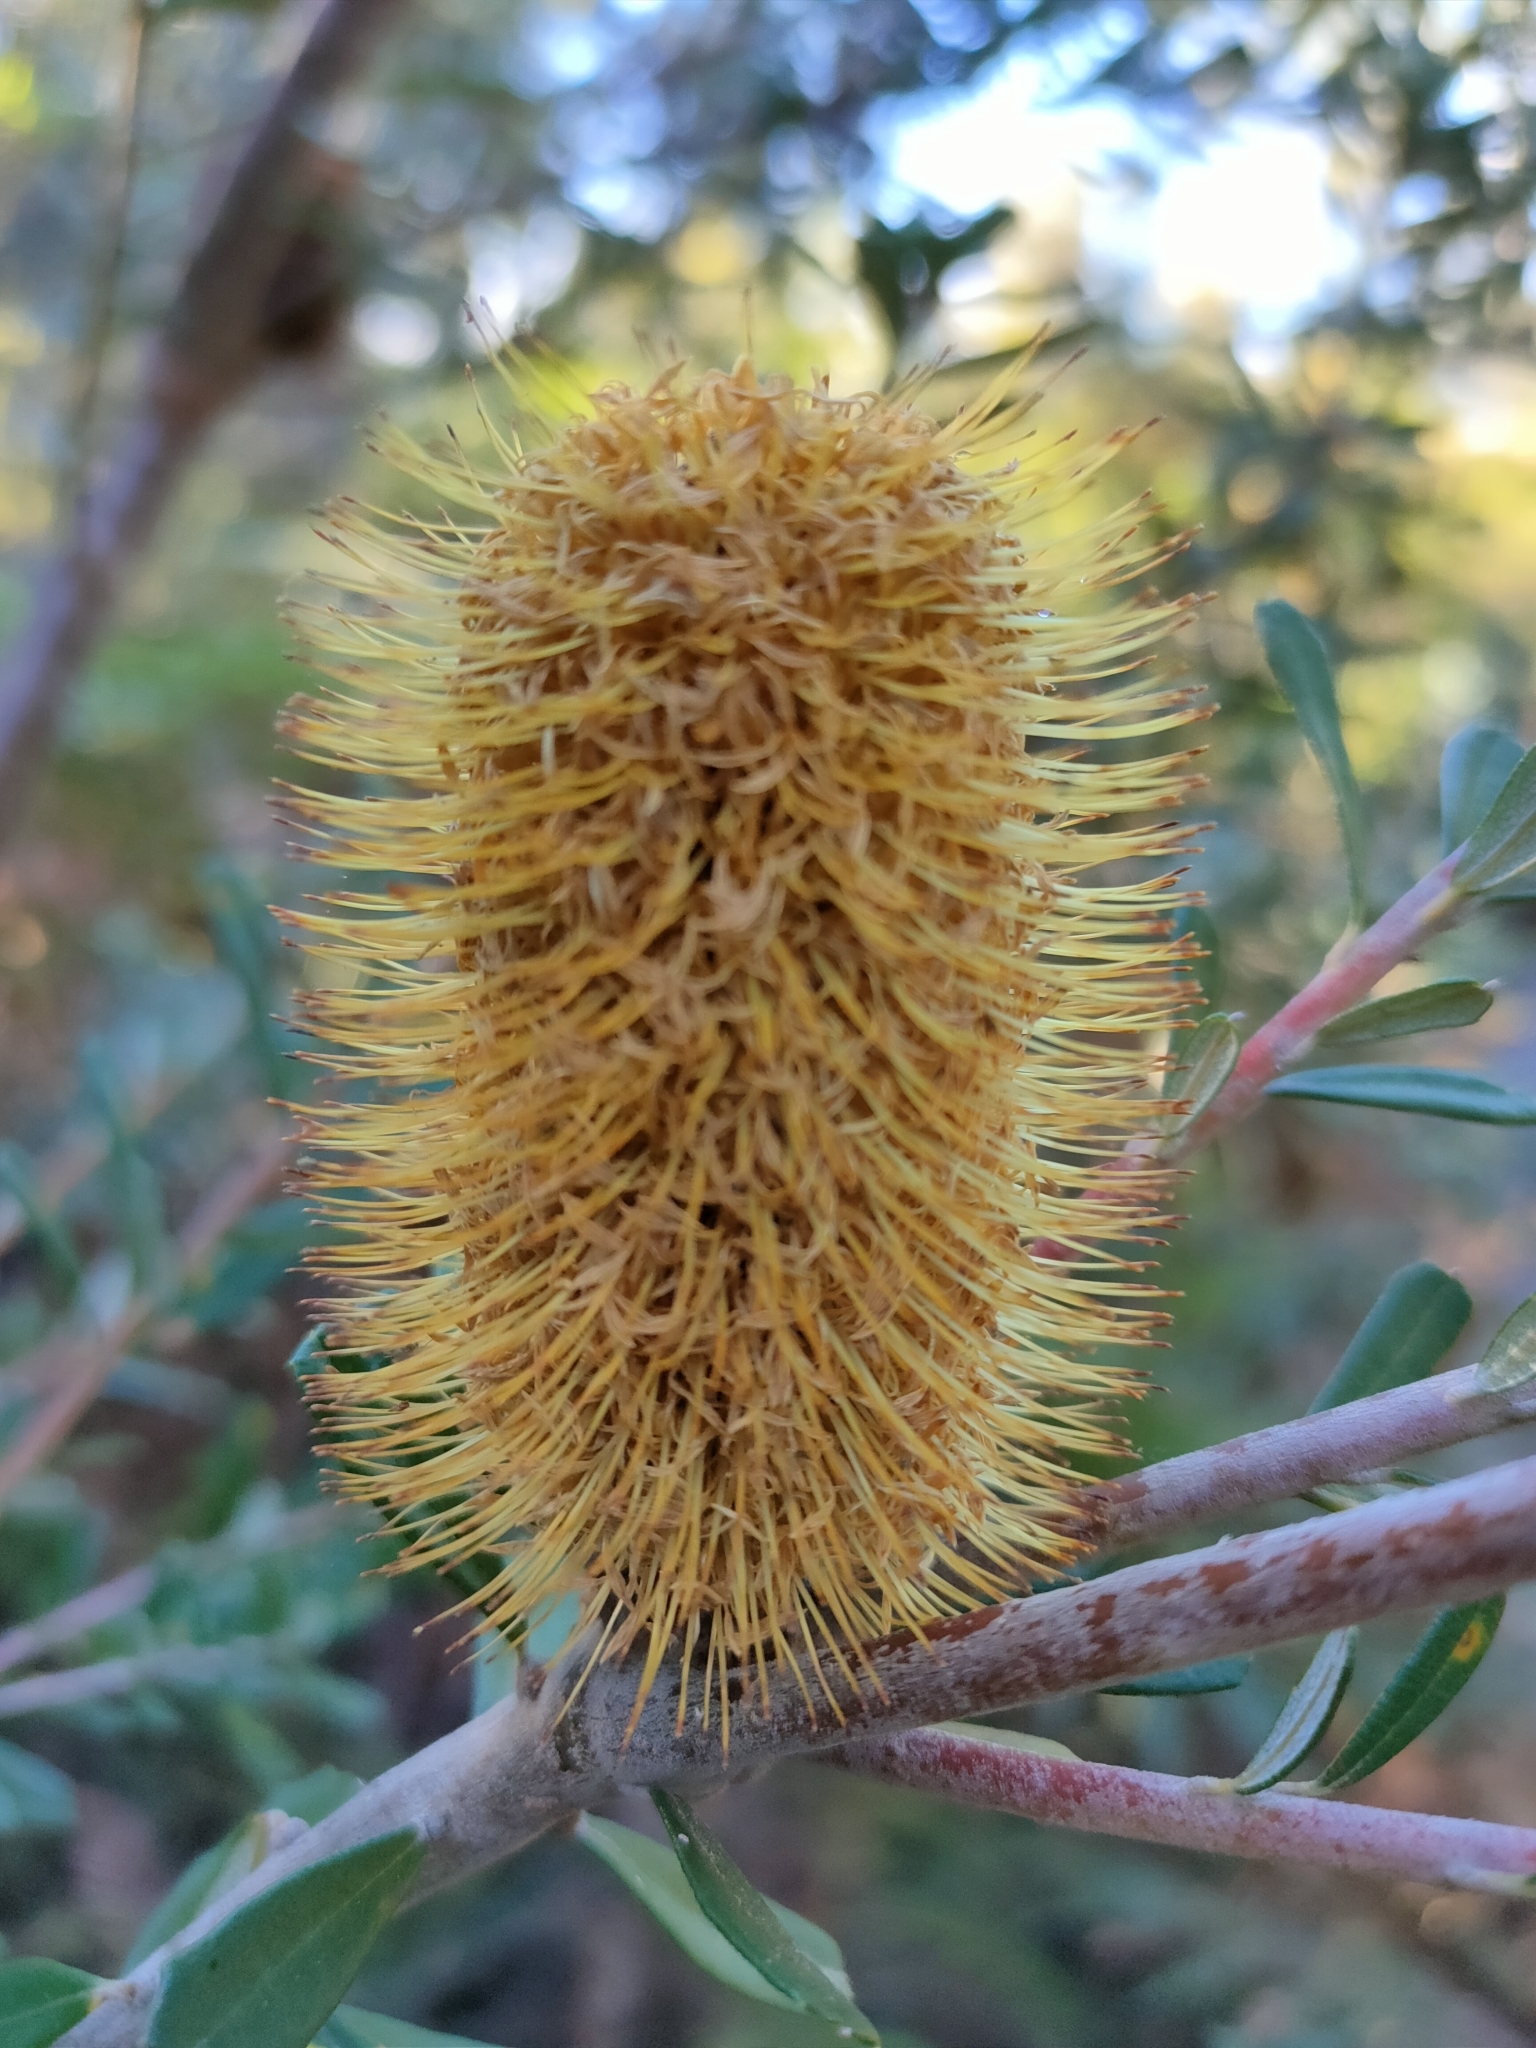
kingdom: Plantae
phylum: Tracheophyta
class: Magnoliopsida
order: Proteales
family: Proteaceae
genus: Banksia
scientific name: Banksia marginata
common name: Silver banksia
